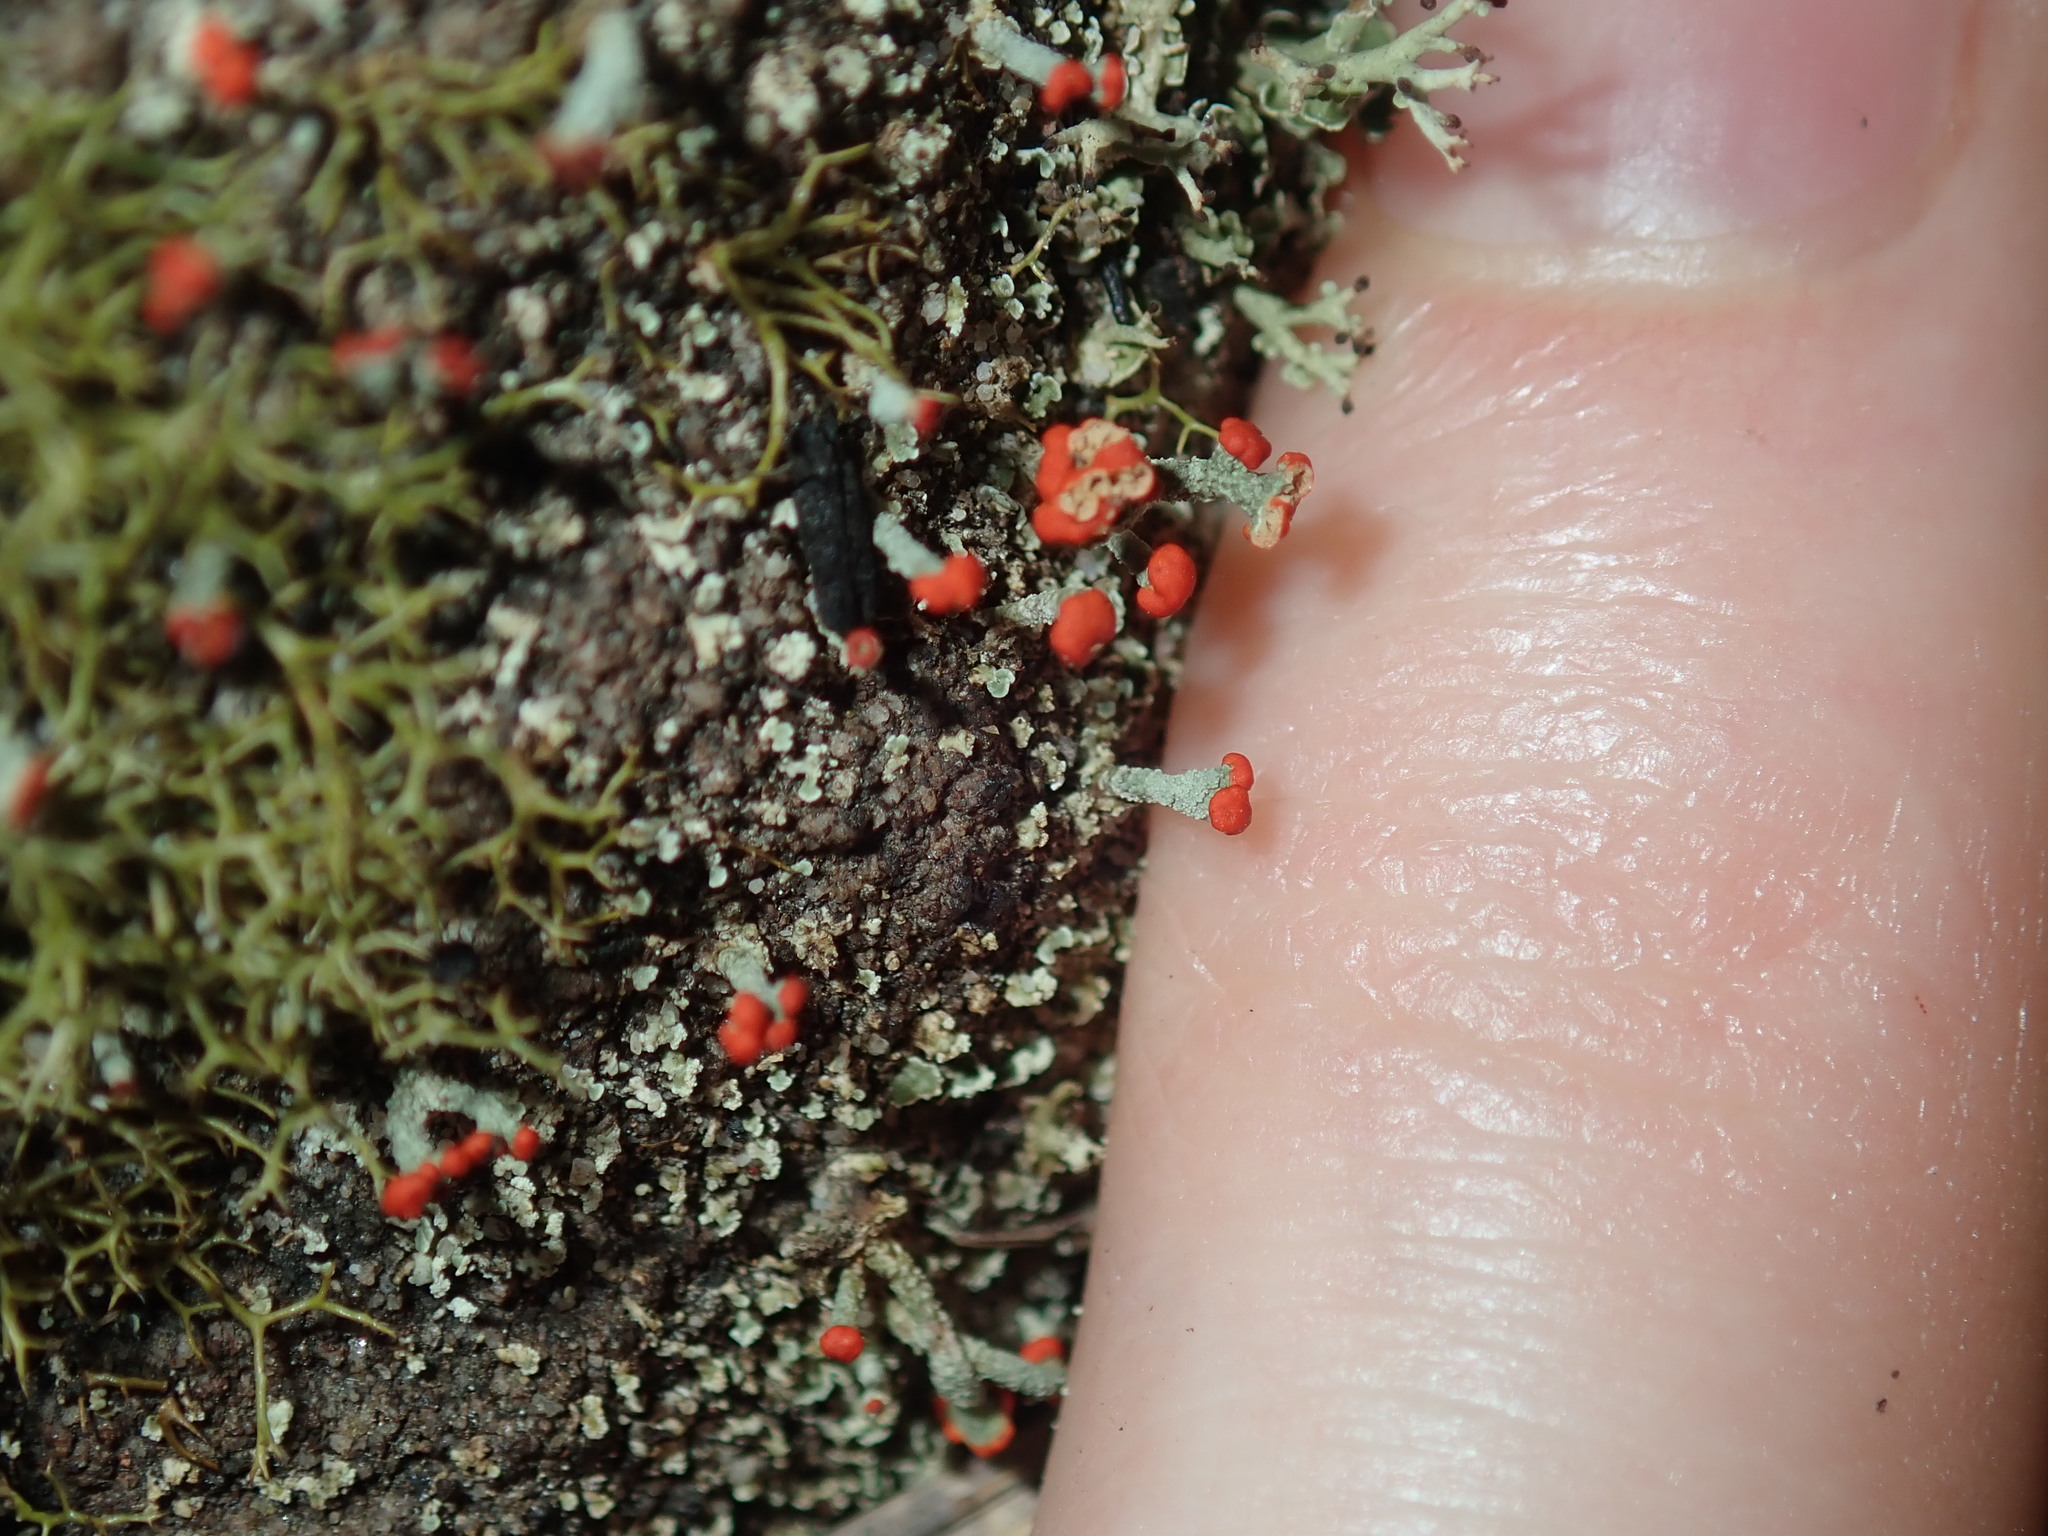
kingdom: Fungi
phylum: Ascomycota
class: Lecanoromycetes
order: Lecanorales
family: Cladoniaceae
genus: Cladonia
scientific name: Cladonia floerkeana
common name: Gritty british soldiers lichen
